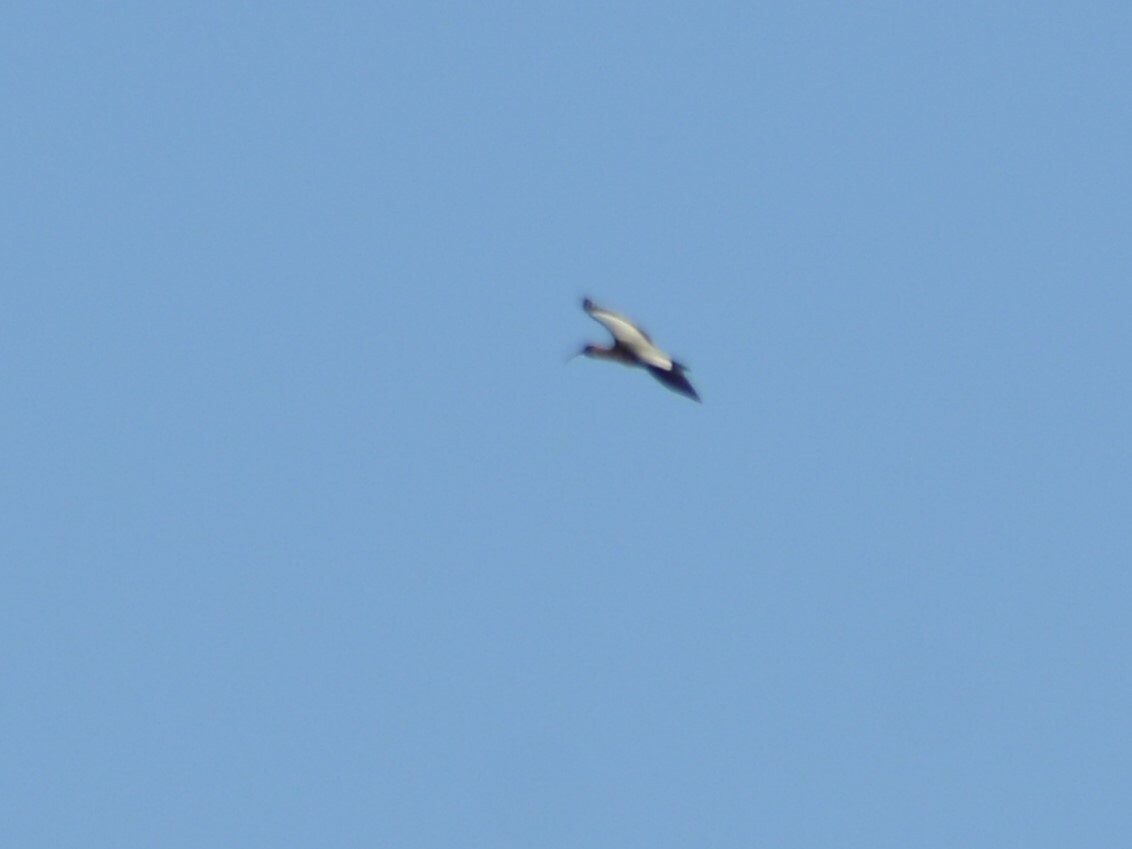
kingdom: Animalia
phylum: Chordata
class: Aves
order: Pelecaniformes
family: Threskiornithidae
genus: Theristicus
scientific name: Theristicus melanopis
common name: Black-faced ibis
